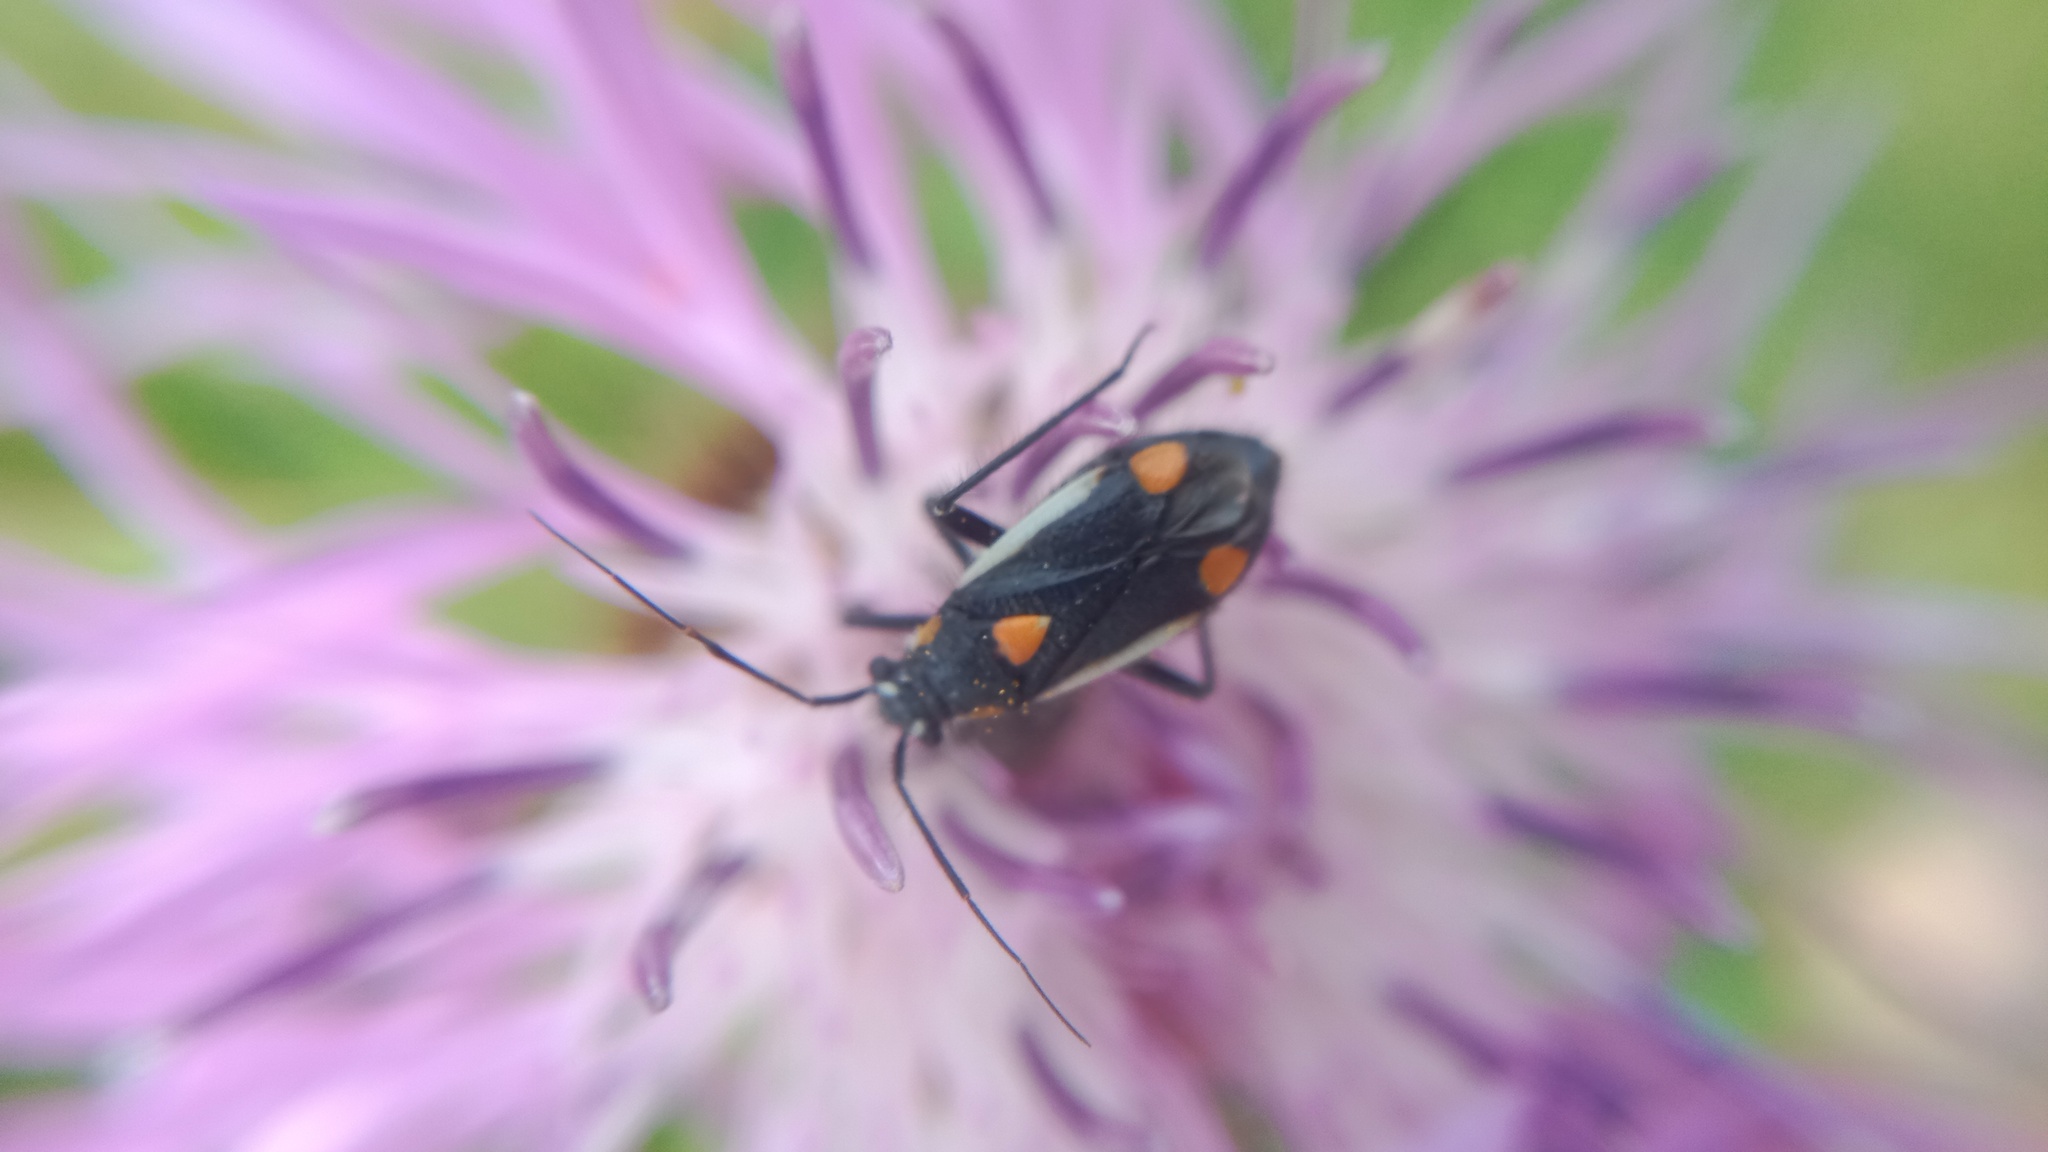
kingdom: Animalia
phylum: Arthropoda
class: Insecta
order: Hemiptera
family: Miridae
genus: Capsodes
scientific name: Capsodes gothicus
